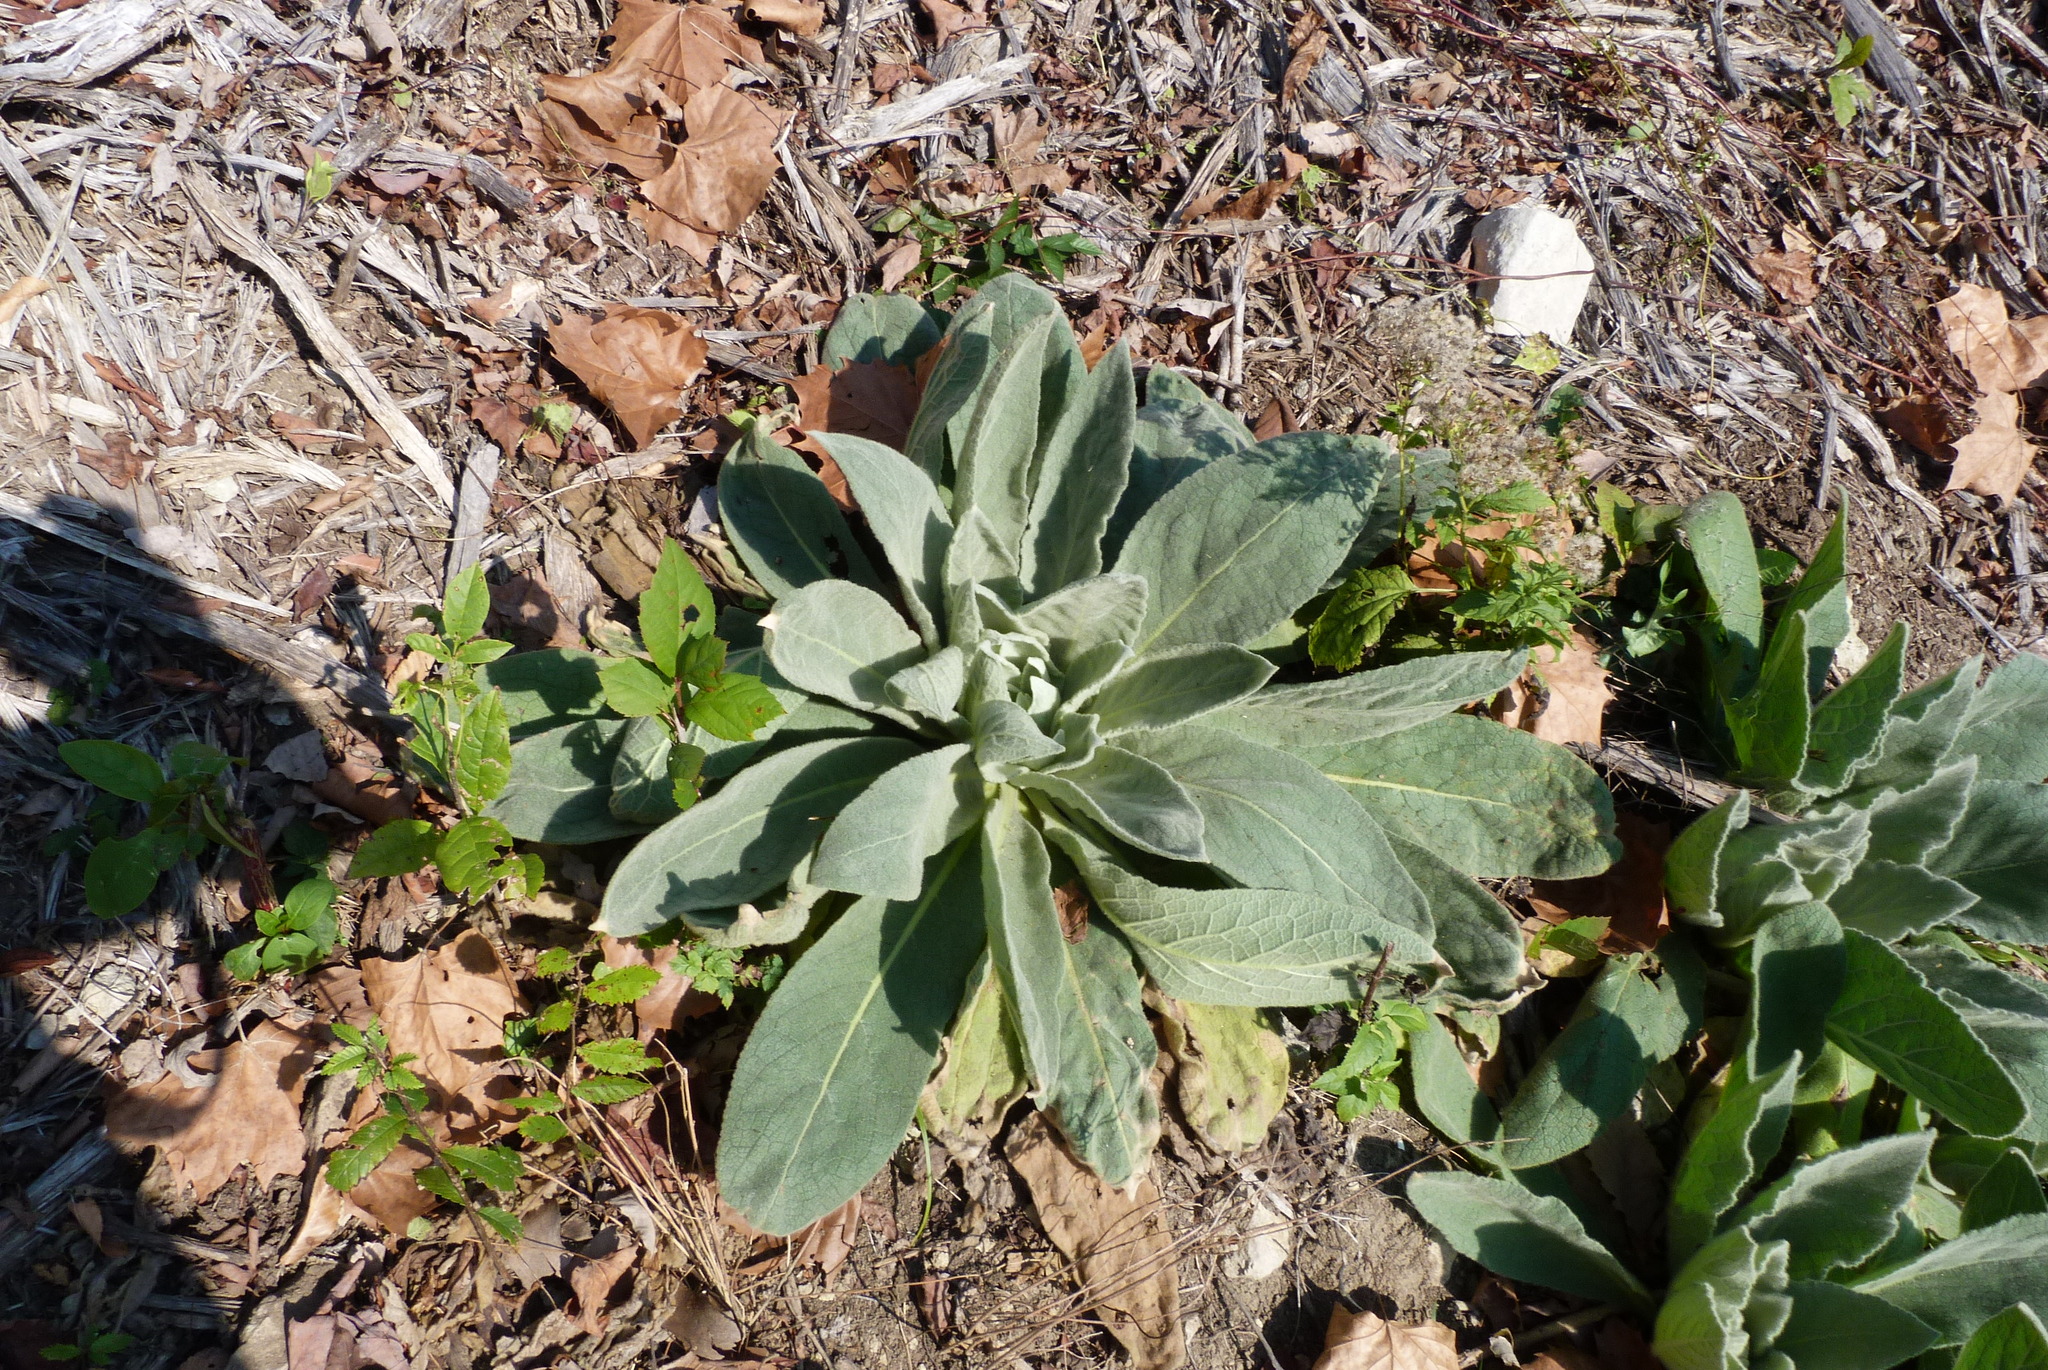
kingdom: Plantae
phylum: Tracheophyta
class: Magnoliopsida
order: Lamiales
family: Scrophulariaceae
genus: Verbascum
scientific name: Verbascum thapsus
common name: Common mullein
